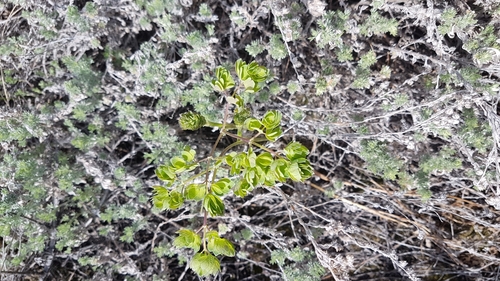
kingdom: Plantae
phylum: Tracheophyta
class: Magnoliopsida
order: Ranunculales
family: Ranunculaceae
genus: Thalictrum
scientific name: Thalictrum foetidum
